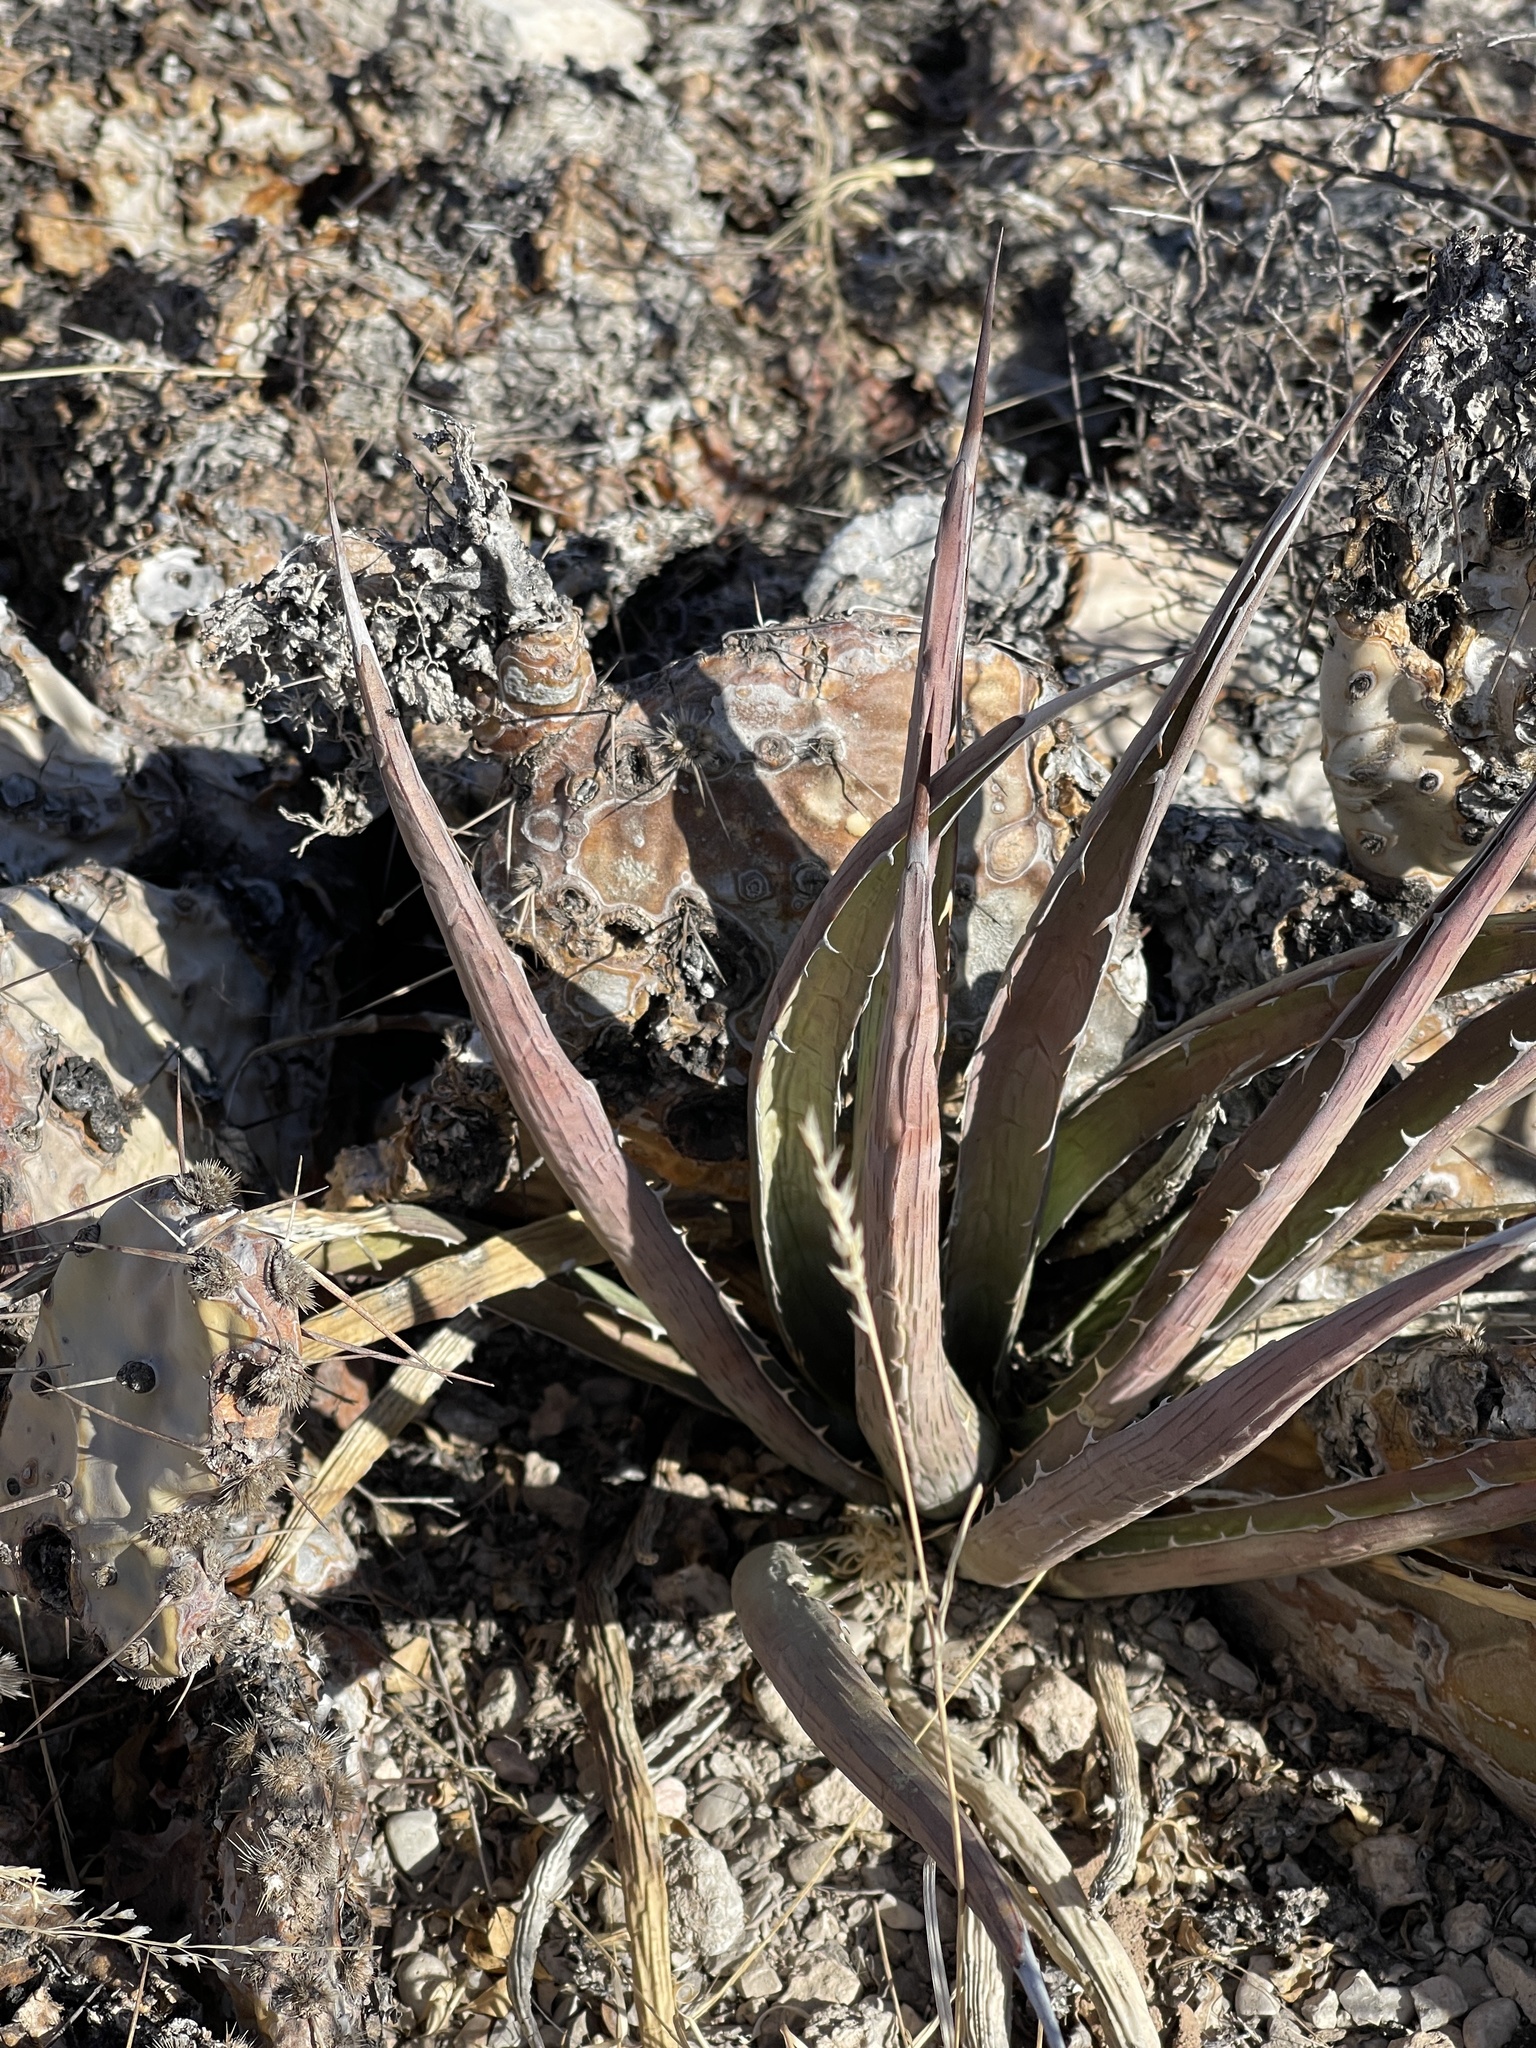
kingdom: Plantae
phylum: Tracheophyta
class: Liliopsida
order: Asparagales
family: Asparagaceae
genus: Agave
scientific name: Agave lechuguilla
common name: Lecheguilla agave
